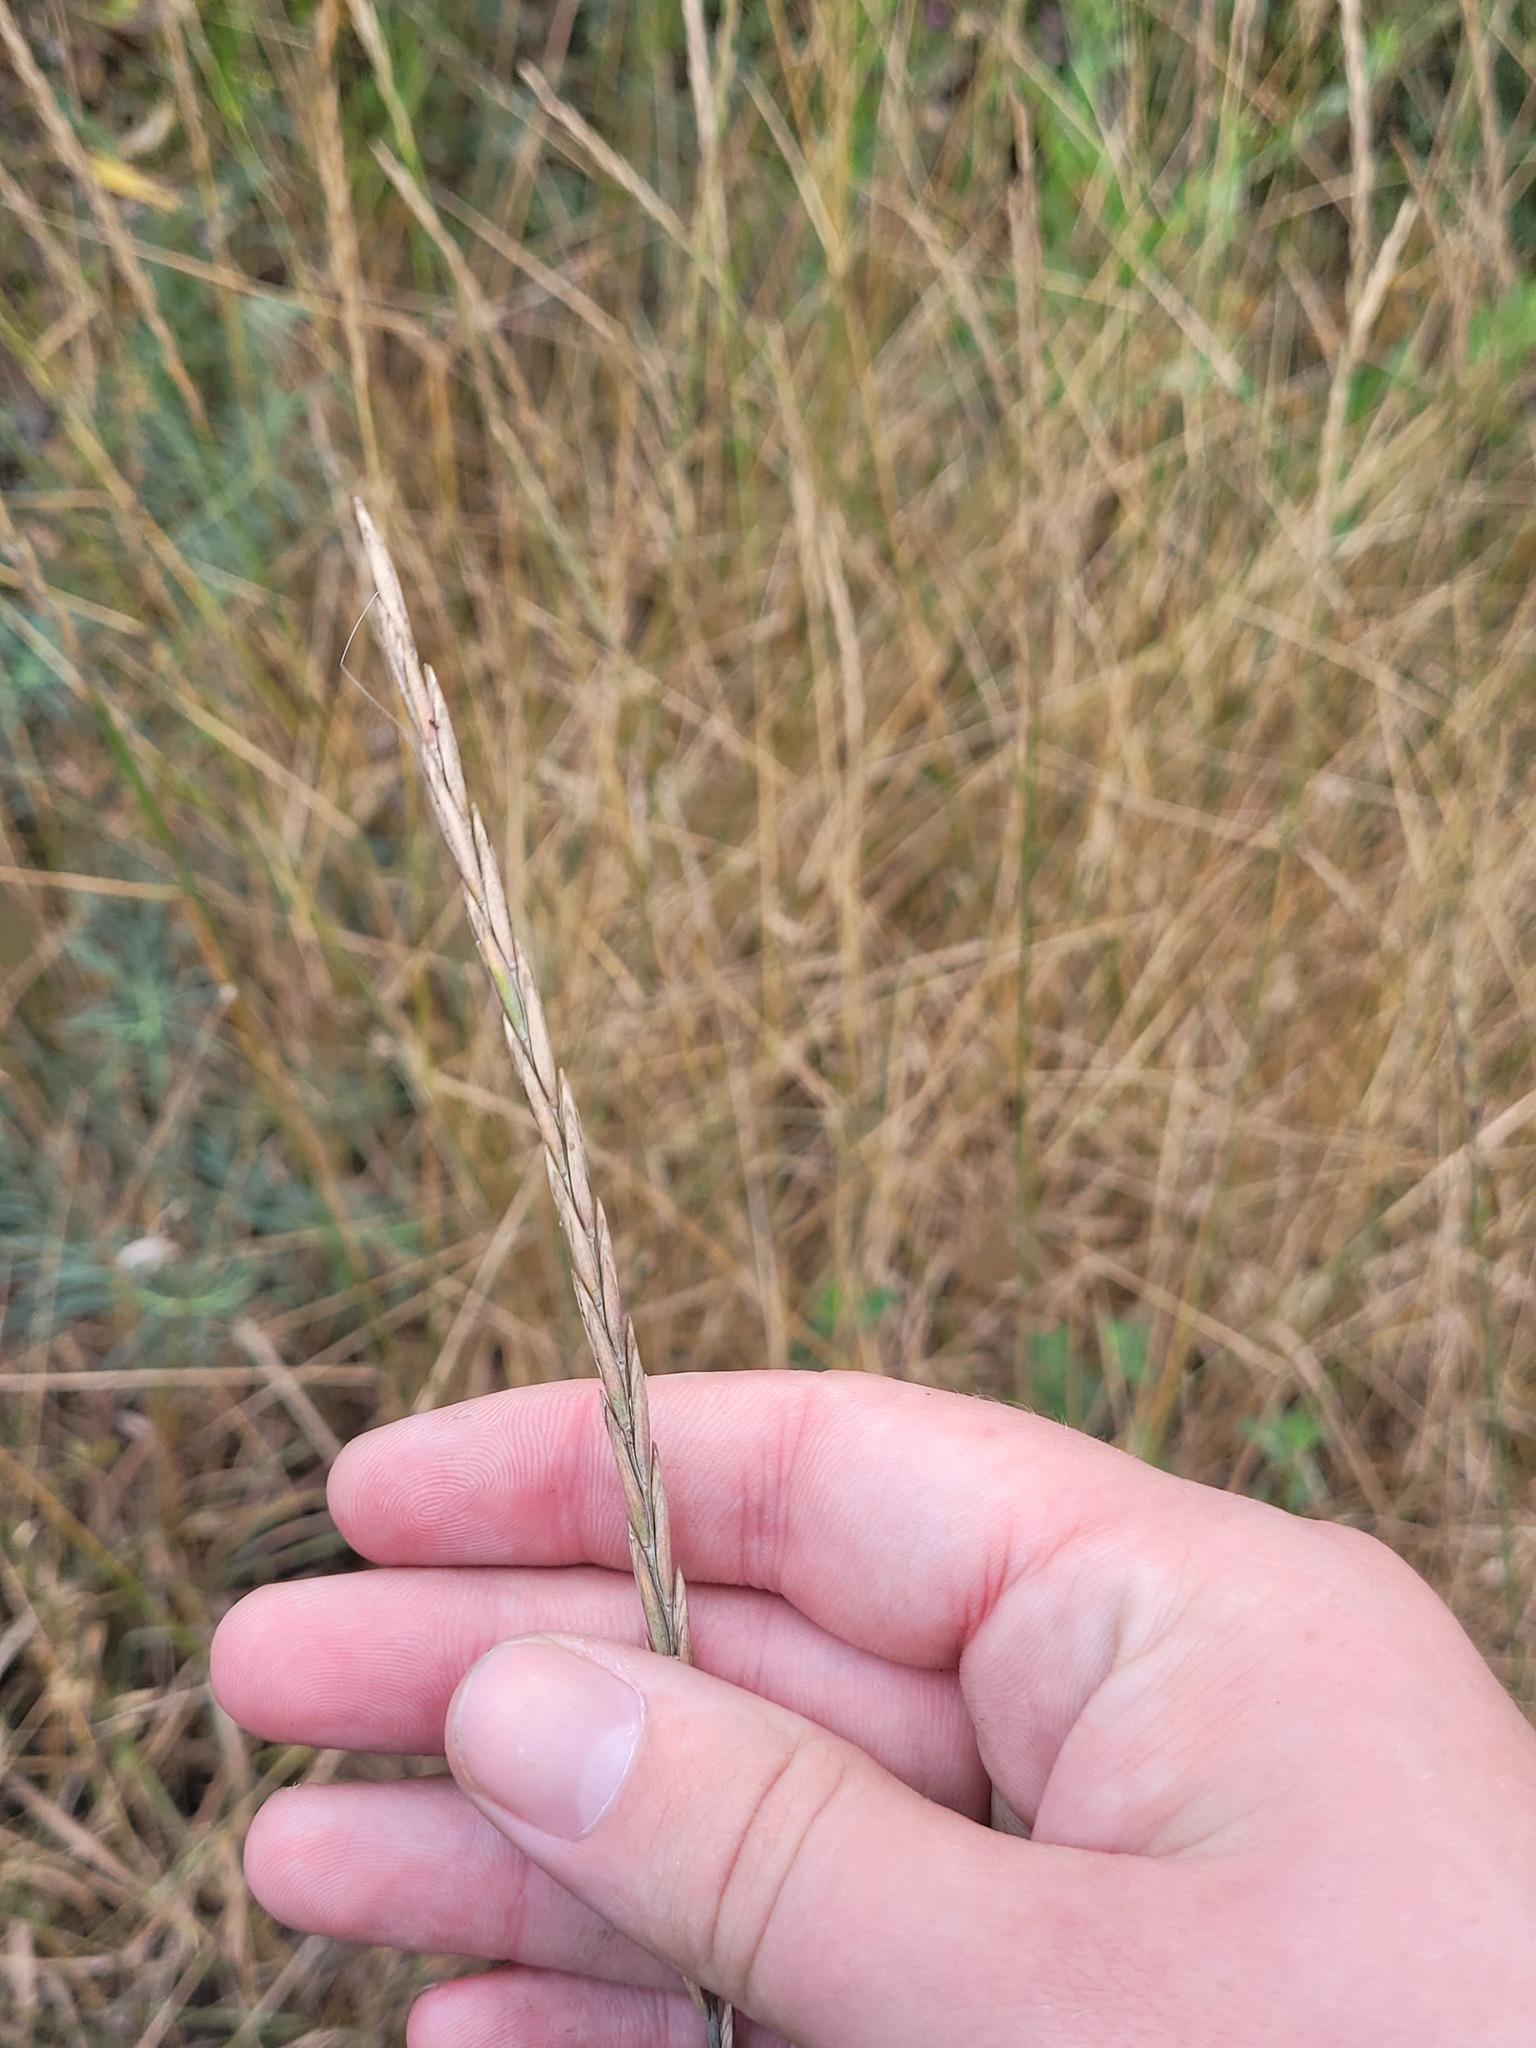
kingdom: Plantae
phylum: Tracheophyta
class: Liliopsida
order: Poales
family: Poaceae
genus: Elymus
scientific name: Elymus repens
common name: Quackgrass
